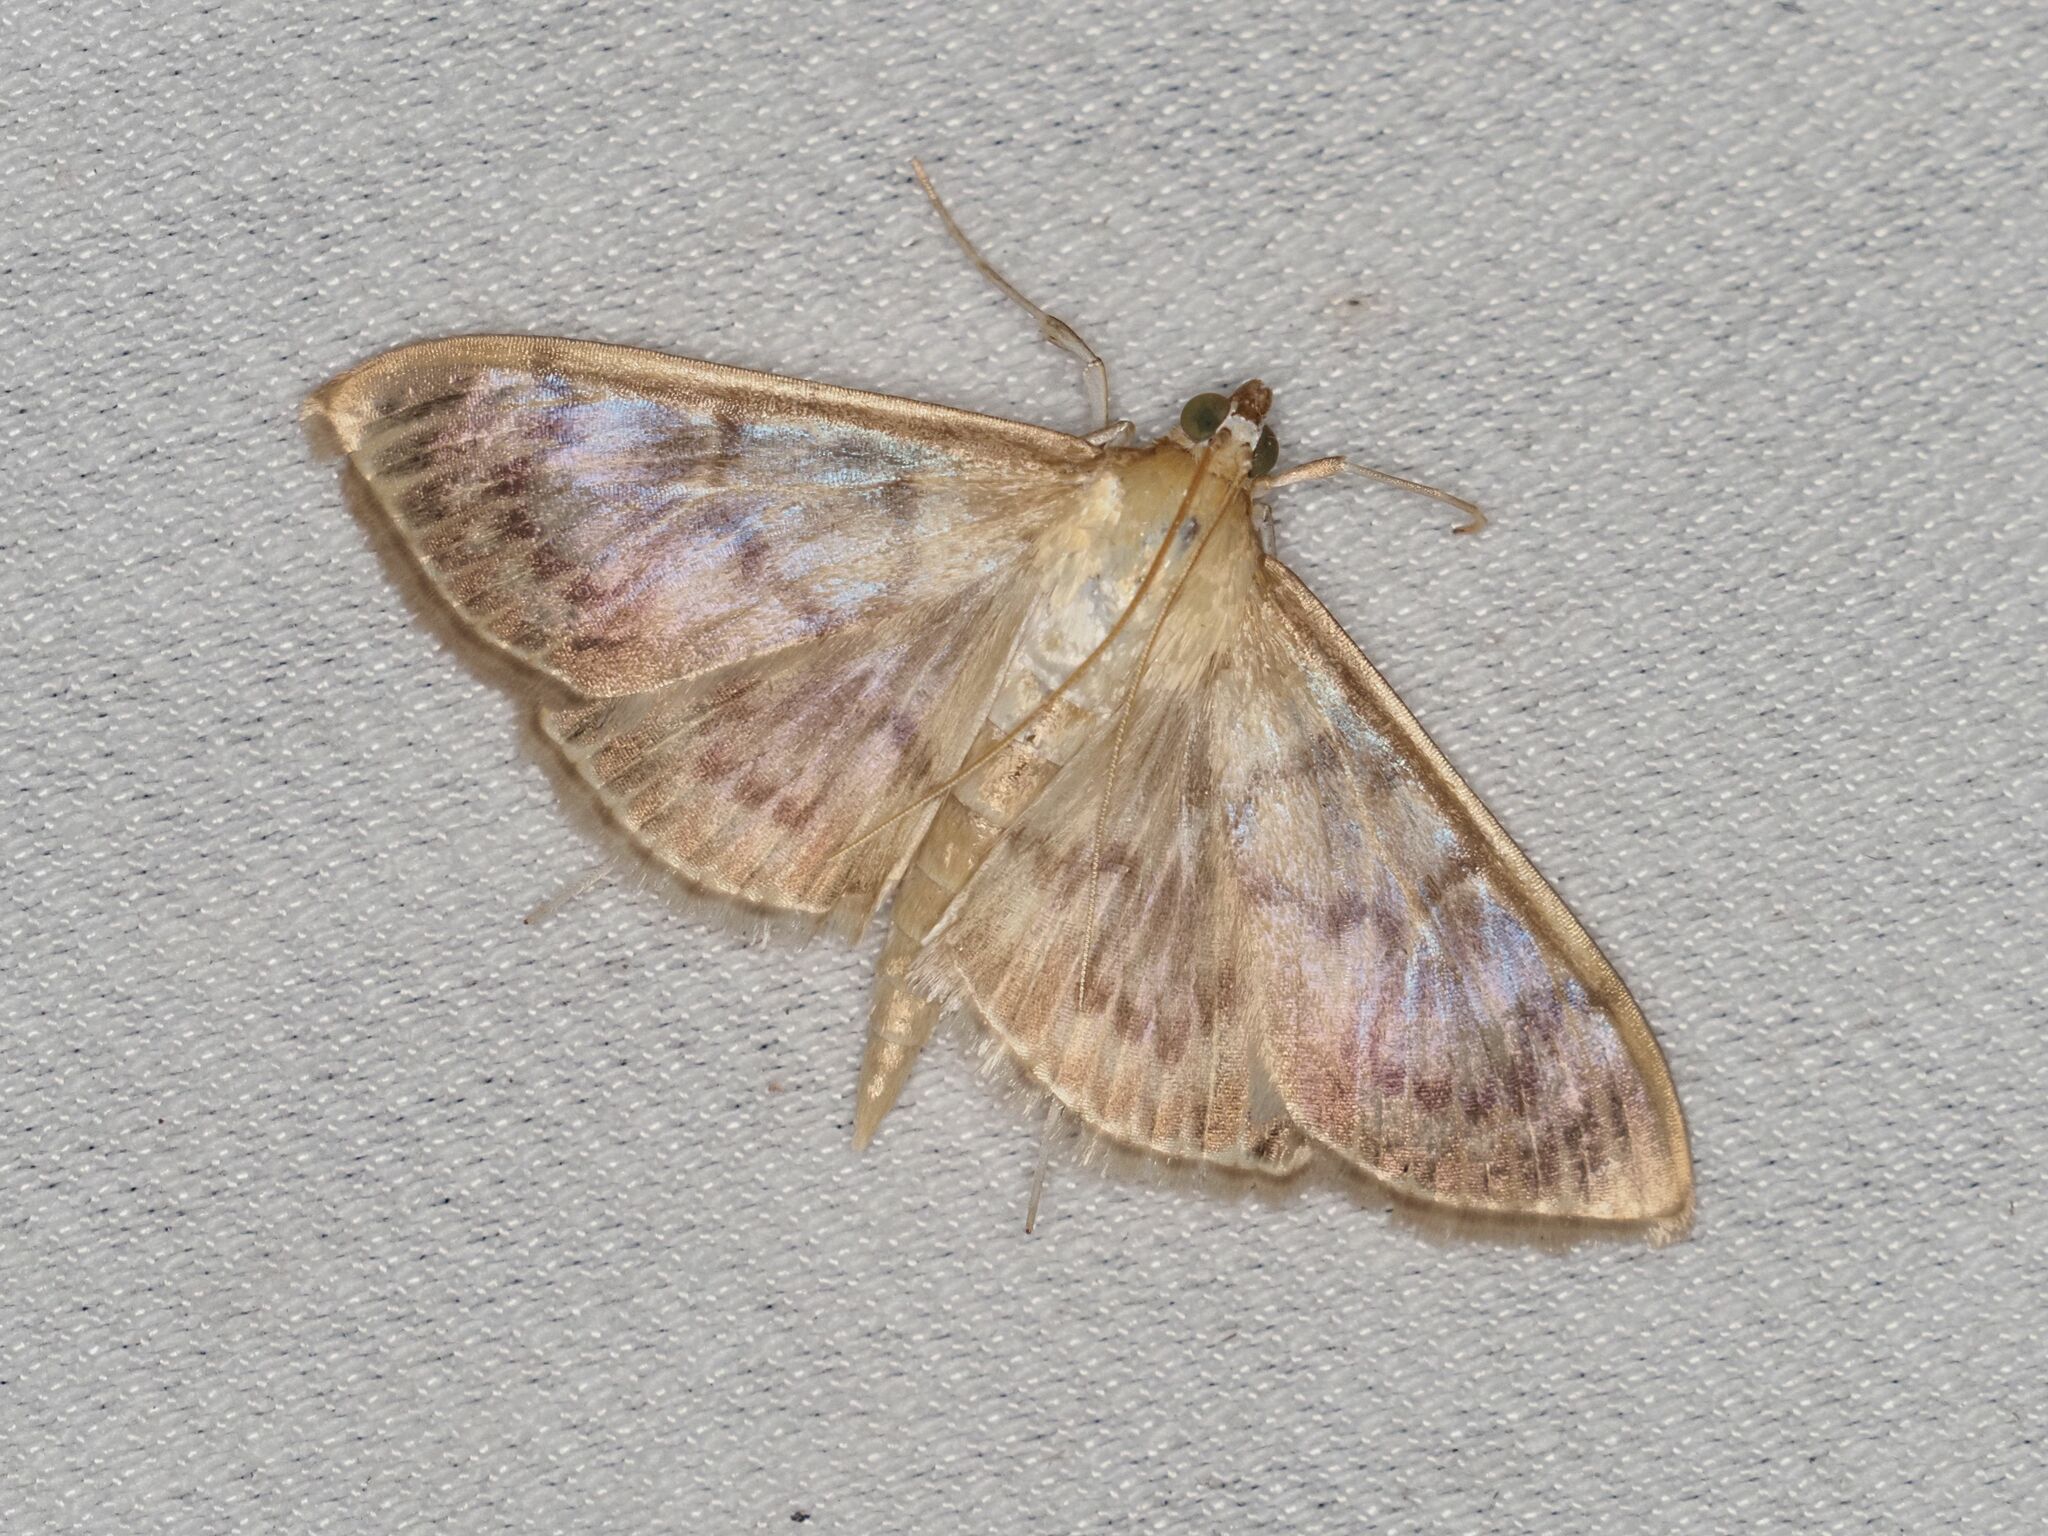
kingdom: Animalia
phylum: Arthropoda
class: Insecta
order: Lepidoptera
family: Crambidae
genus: Patania
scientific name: Patania ruralis
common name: Mother of pearl
